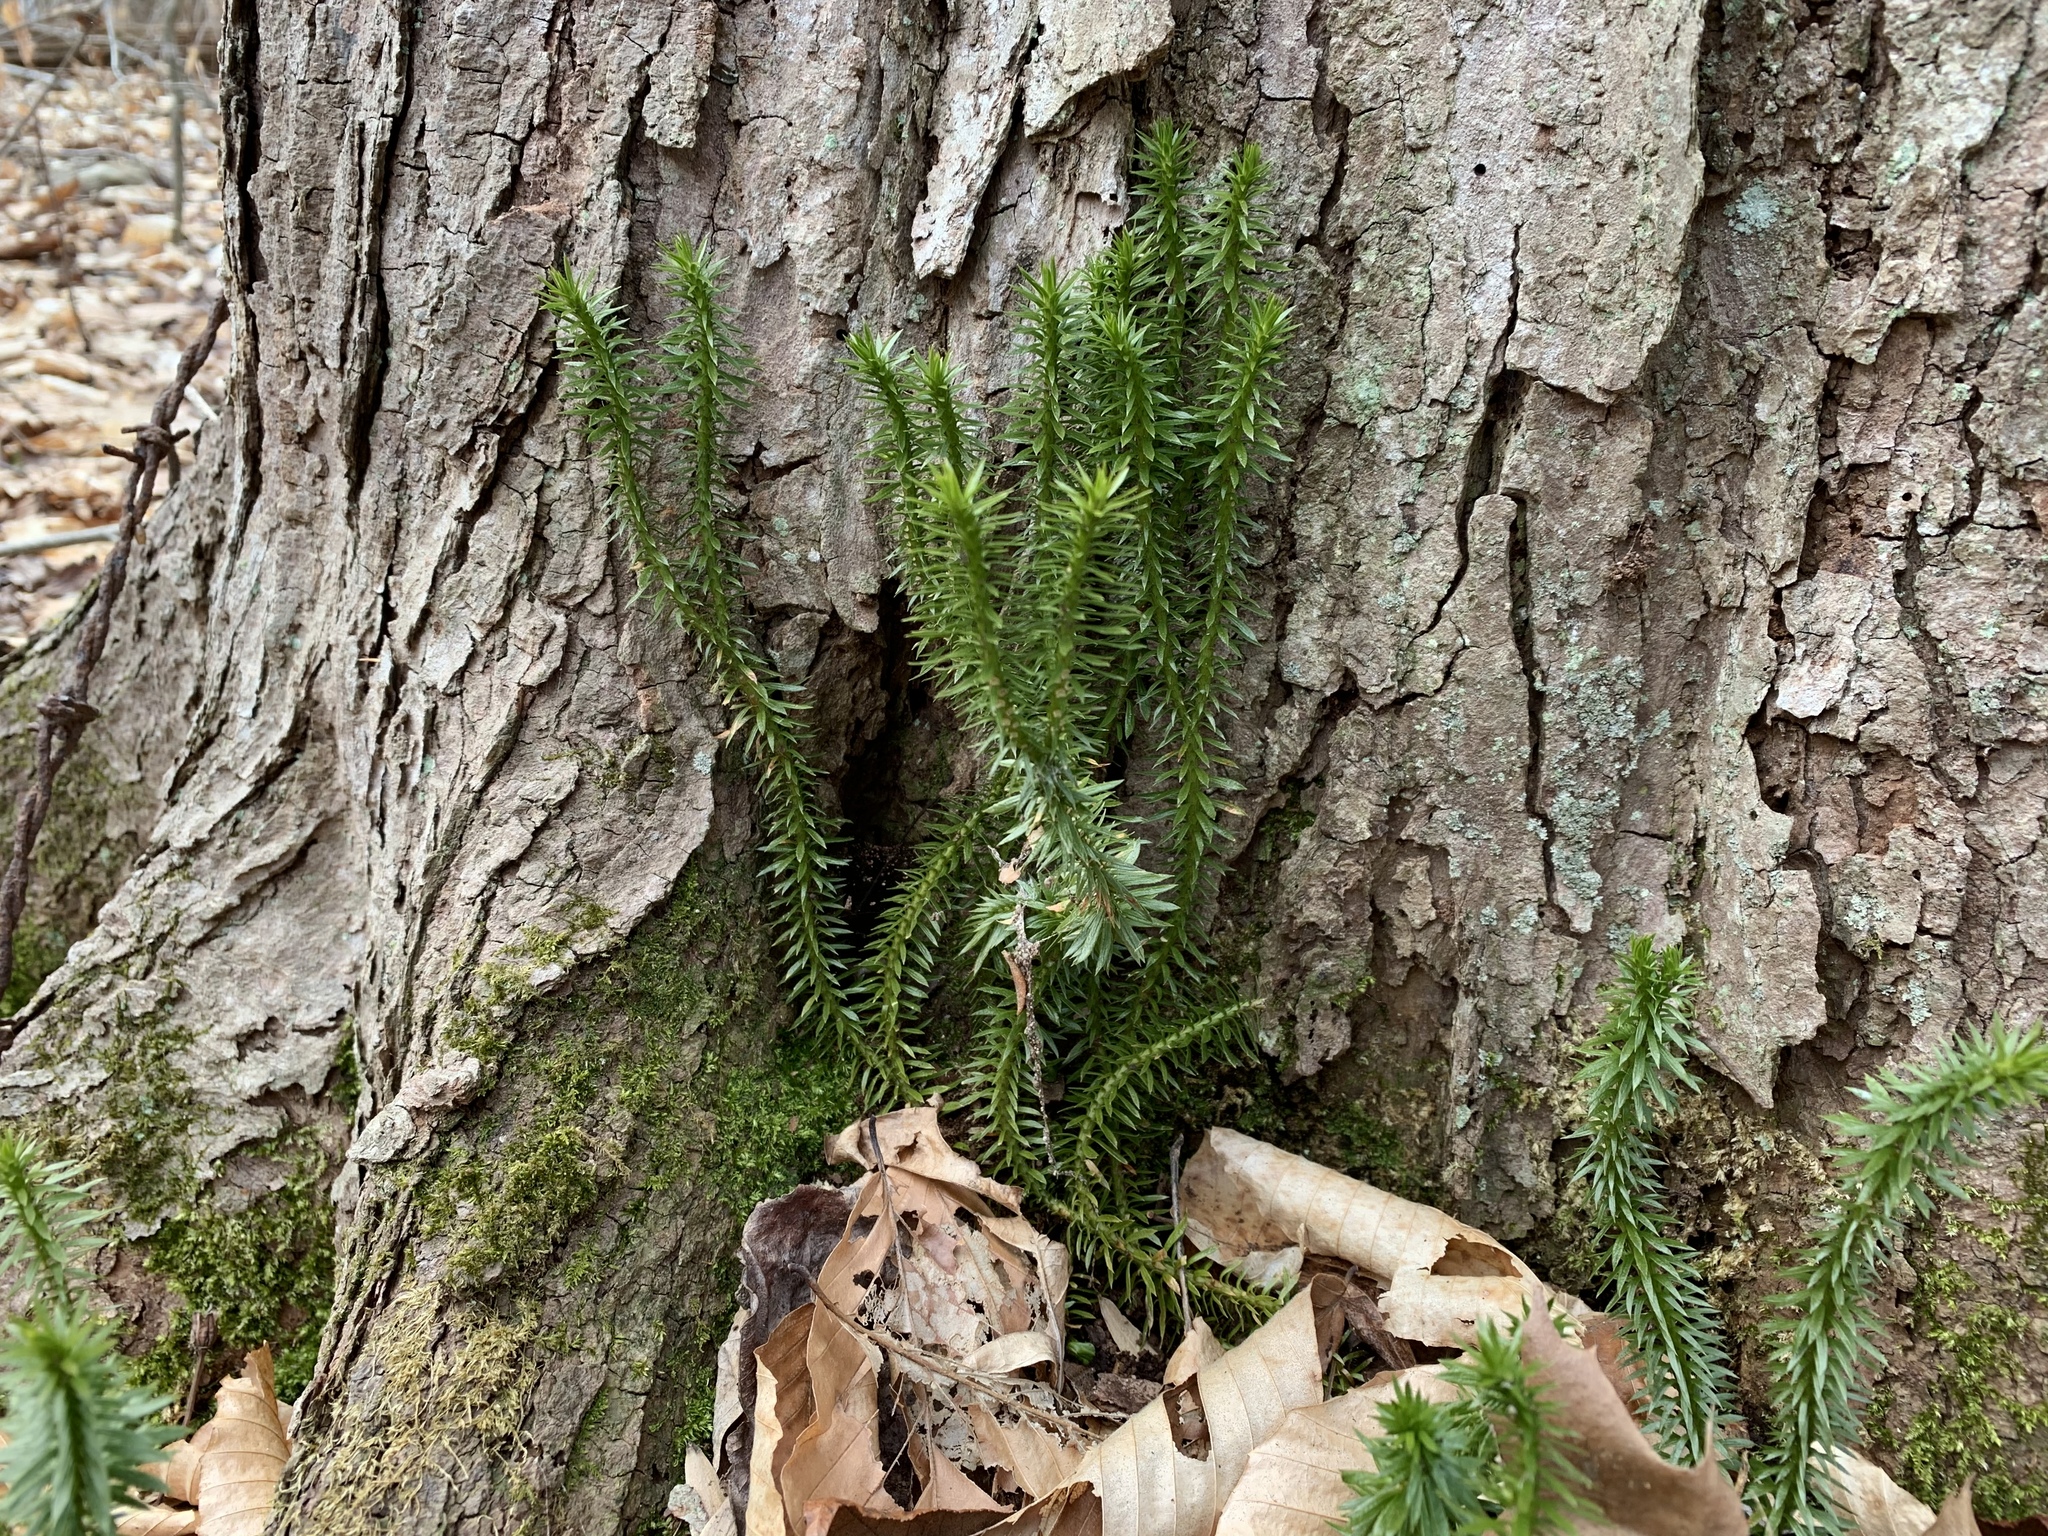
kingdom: Plantae
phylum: Tracheophyta
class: Lycopodiopsida
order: Lycopodiales
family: Lycopodiaceae
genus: Huperzia
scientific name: Huperzia lucidula
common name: Shining clubmoss
